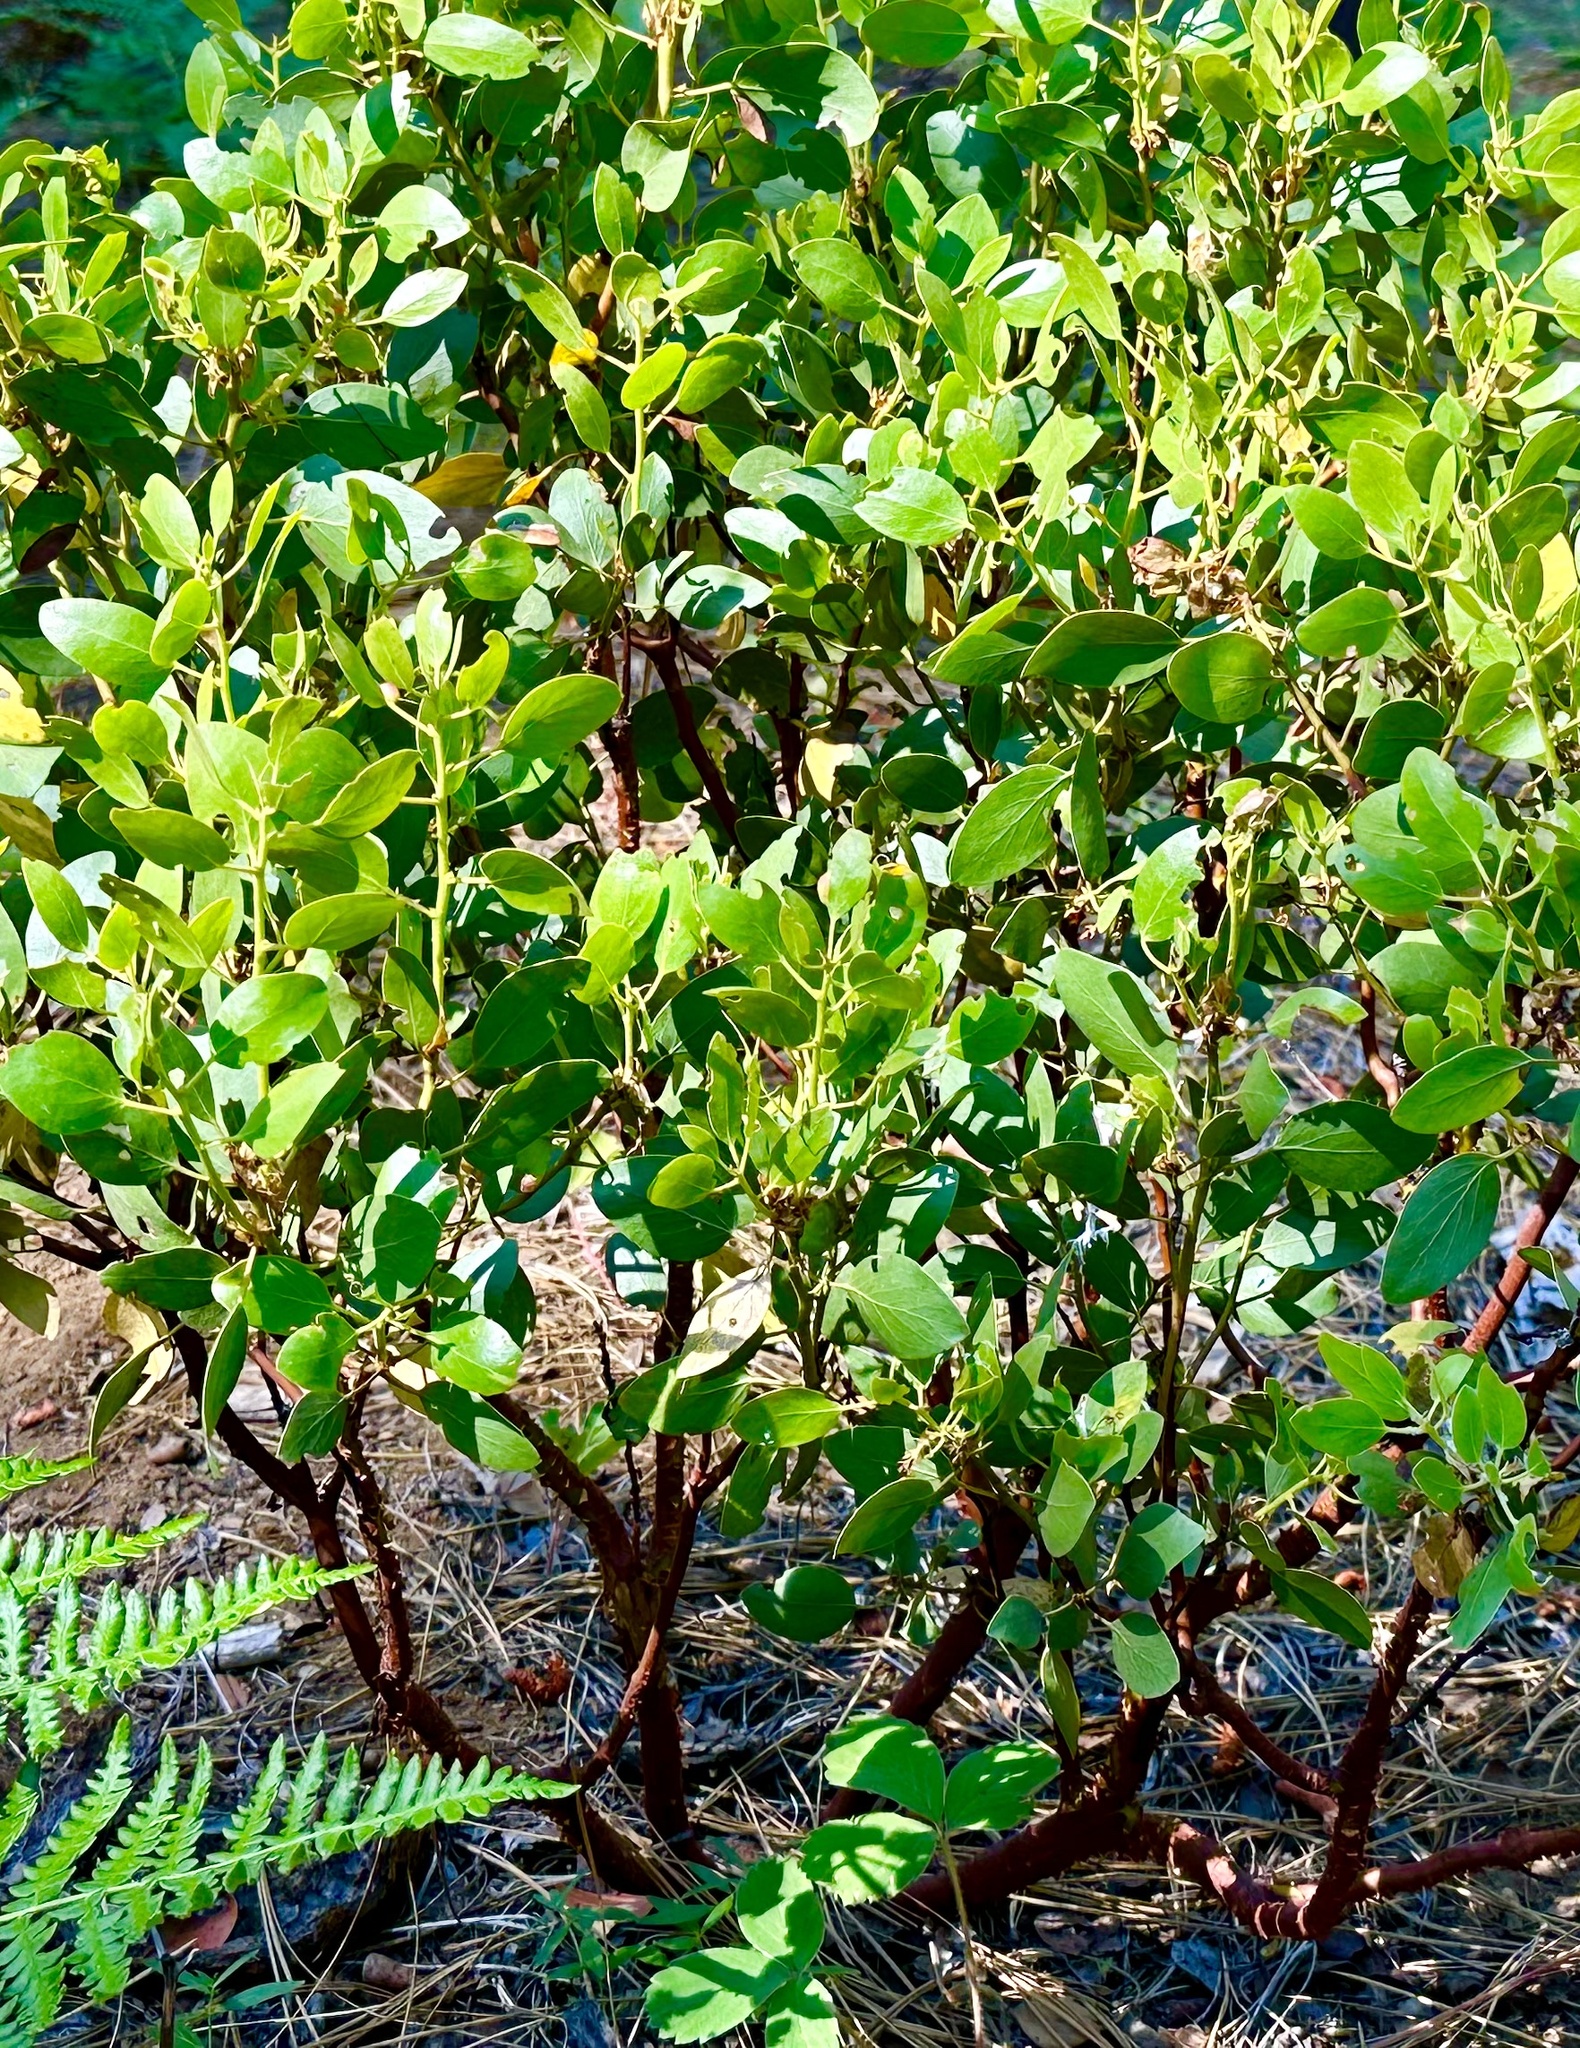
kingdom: Plantae
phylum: Tracheophyta
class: Magnoliopsida
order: Ericales
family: Ericaceae
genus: Arctostaphylos
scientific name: Arctostaphylos patula
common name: Green-leaf manzanita
